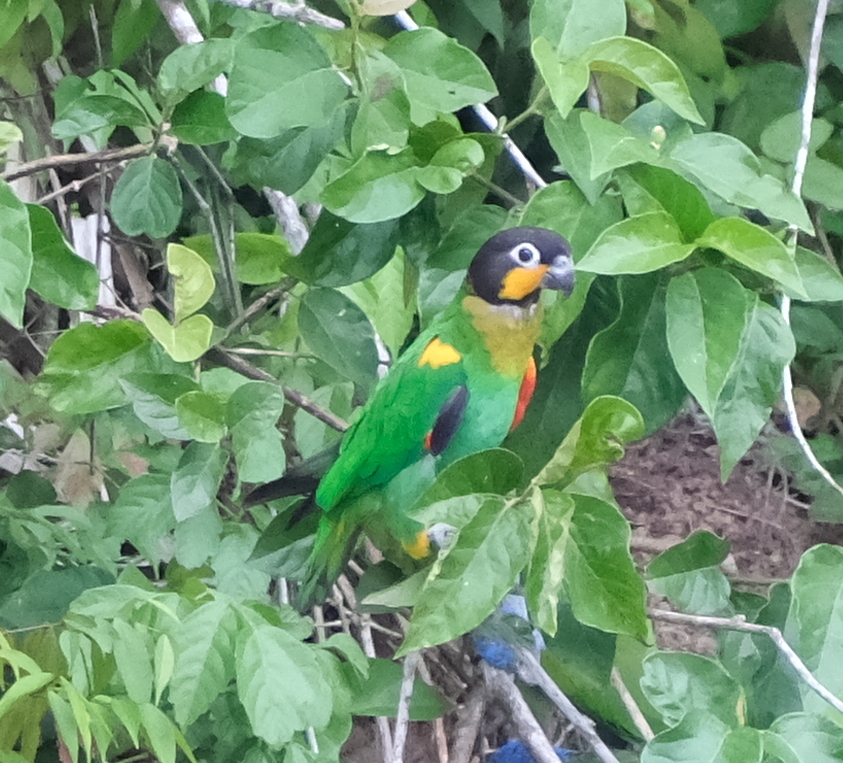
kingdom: Animalia
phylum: Chordata
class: Aves
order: Psittaciformes
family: Psittacidae
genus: Pionopsitta
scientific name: Pionopsitta barrabandi
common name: Orange-cheeked parrot
